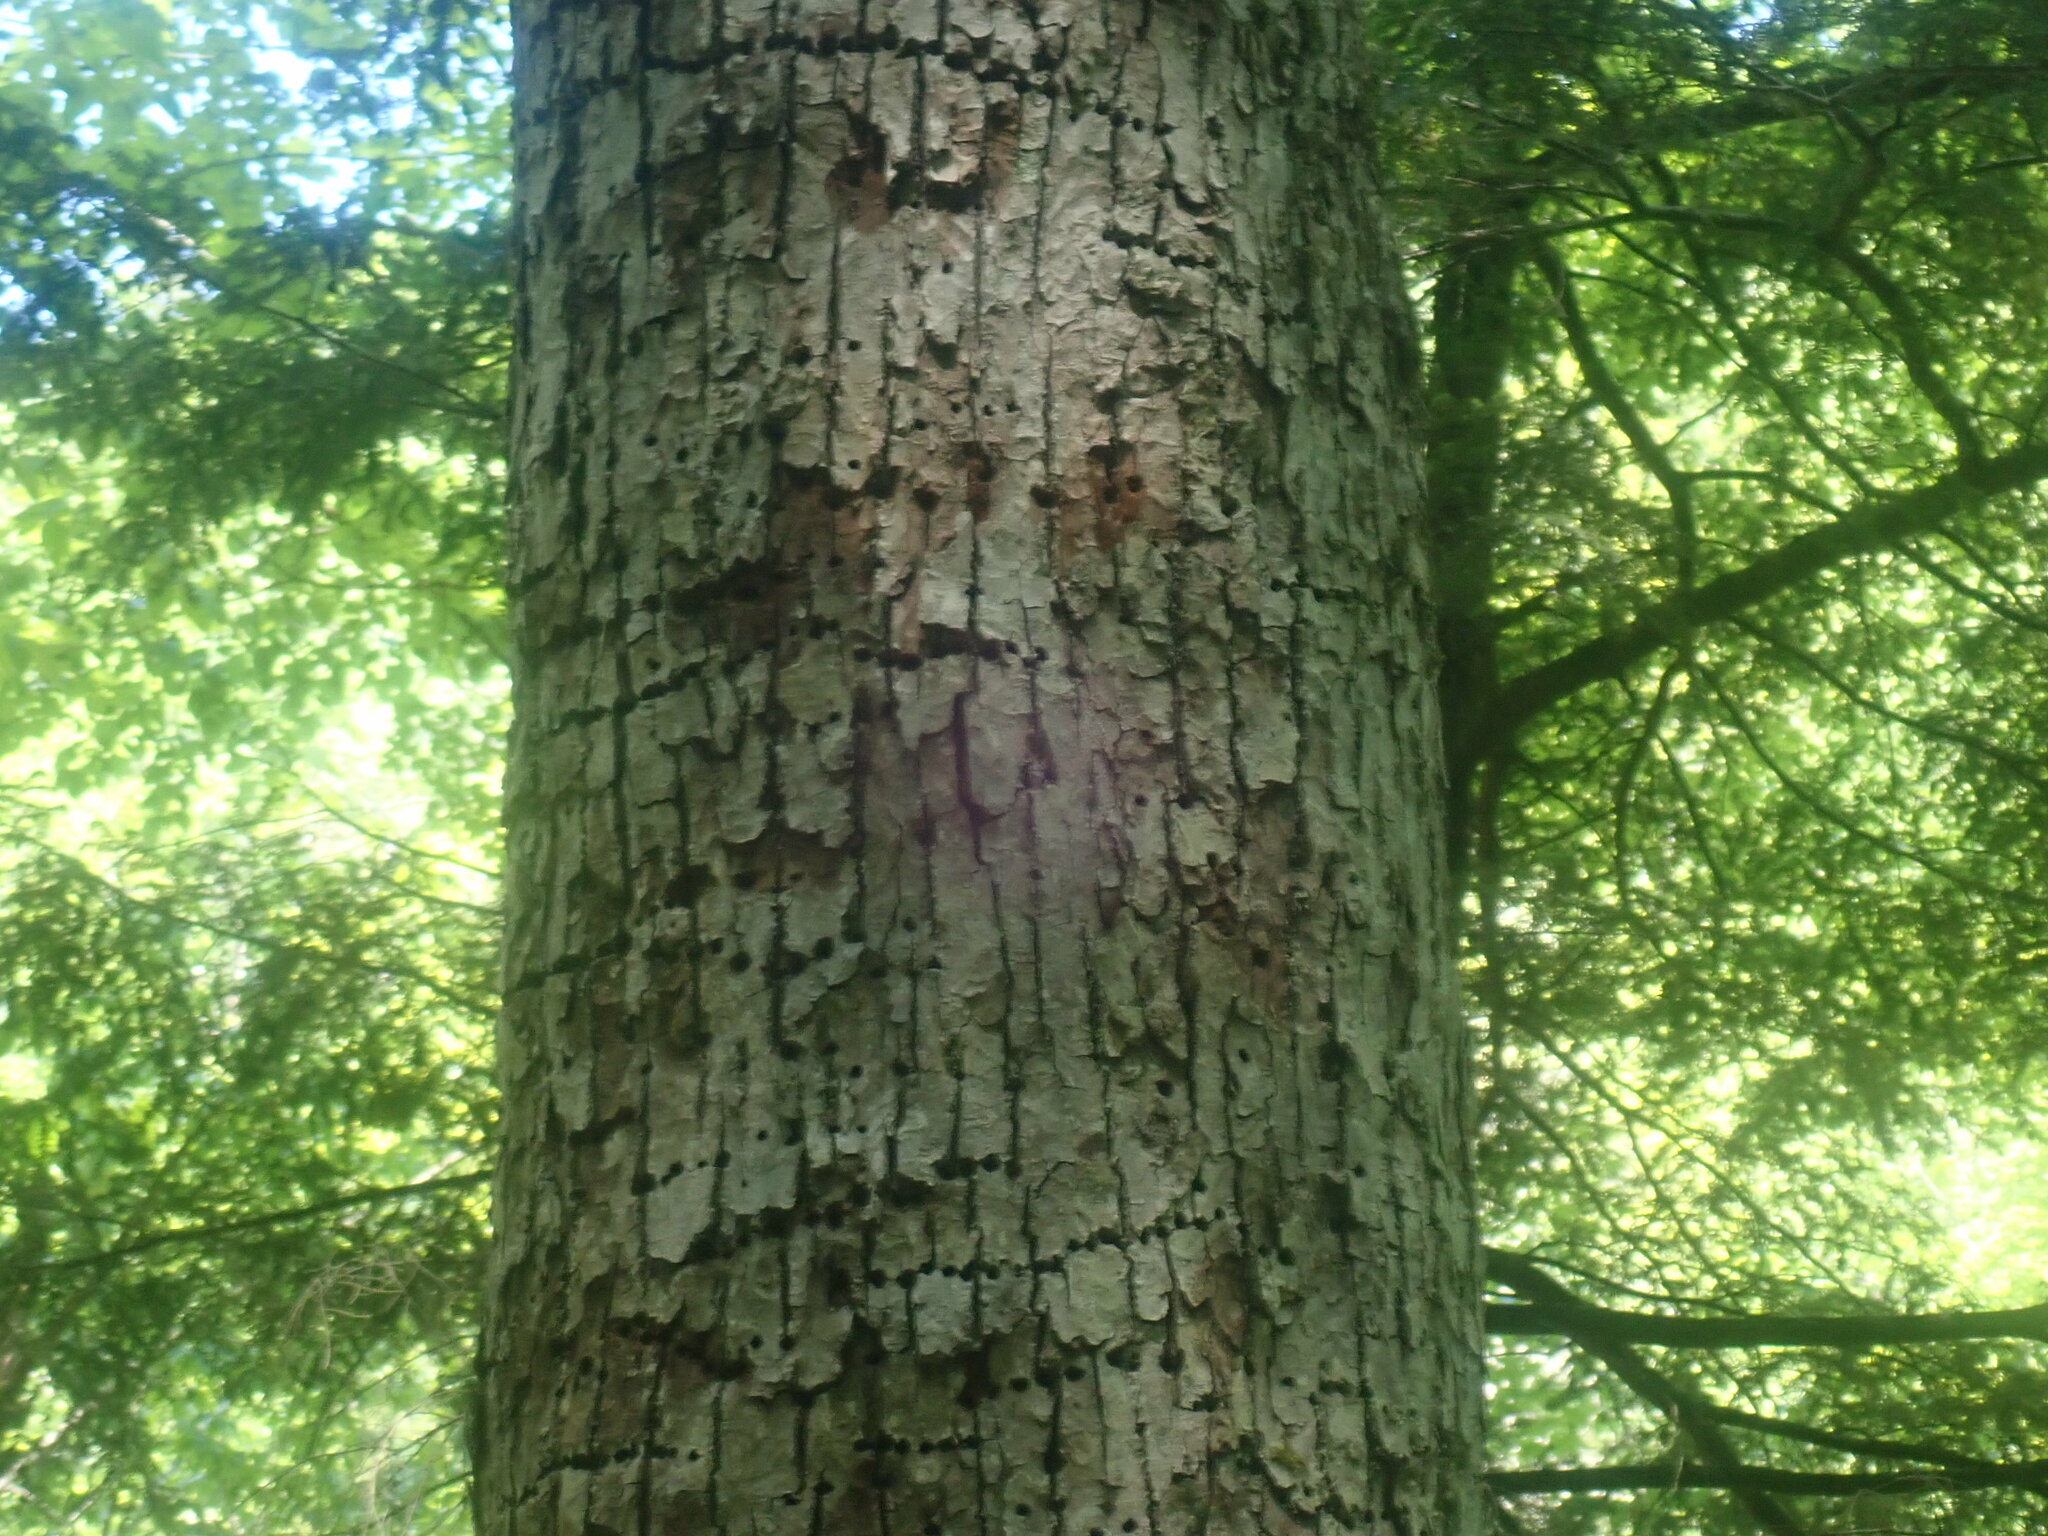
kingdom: Animalia
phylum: Chordata
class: Aves
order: Piciformes
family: Picidae
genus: Sphyrapicus
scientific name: Sphyrapicus varius
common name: Yellow-bellied sapsucker
